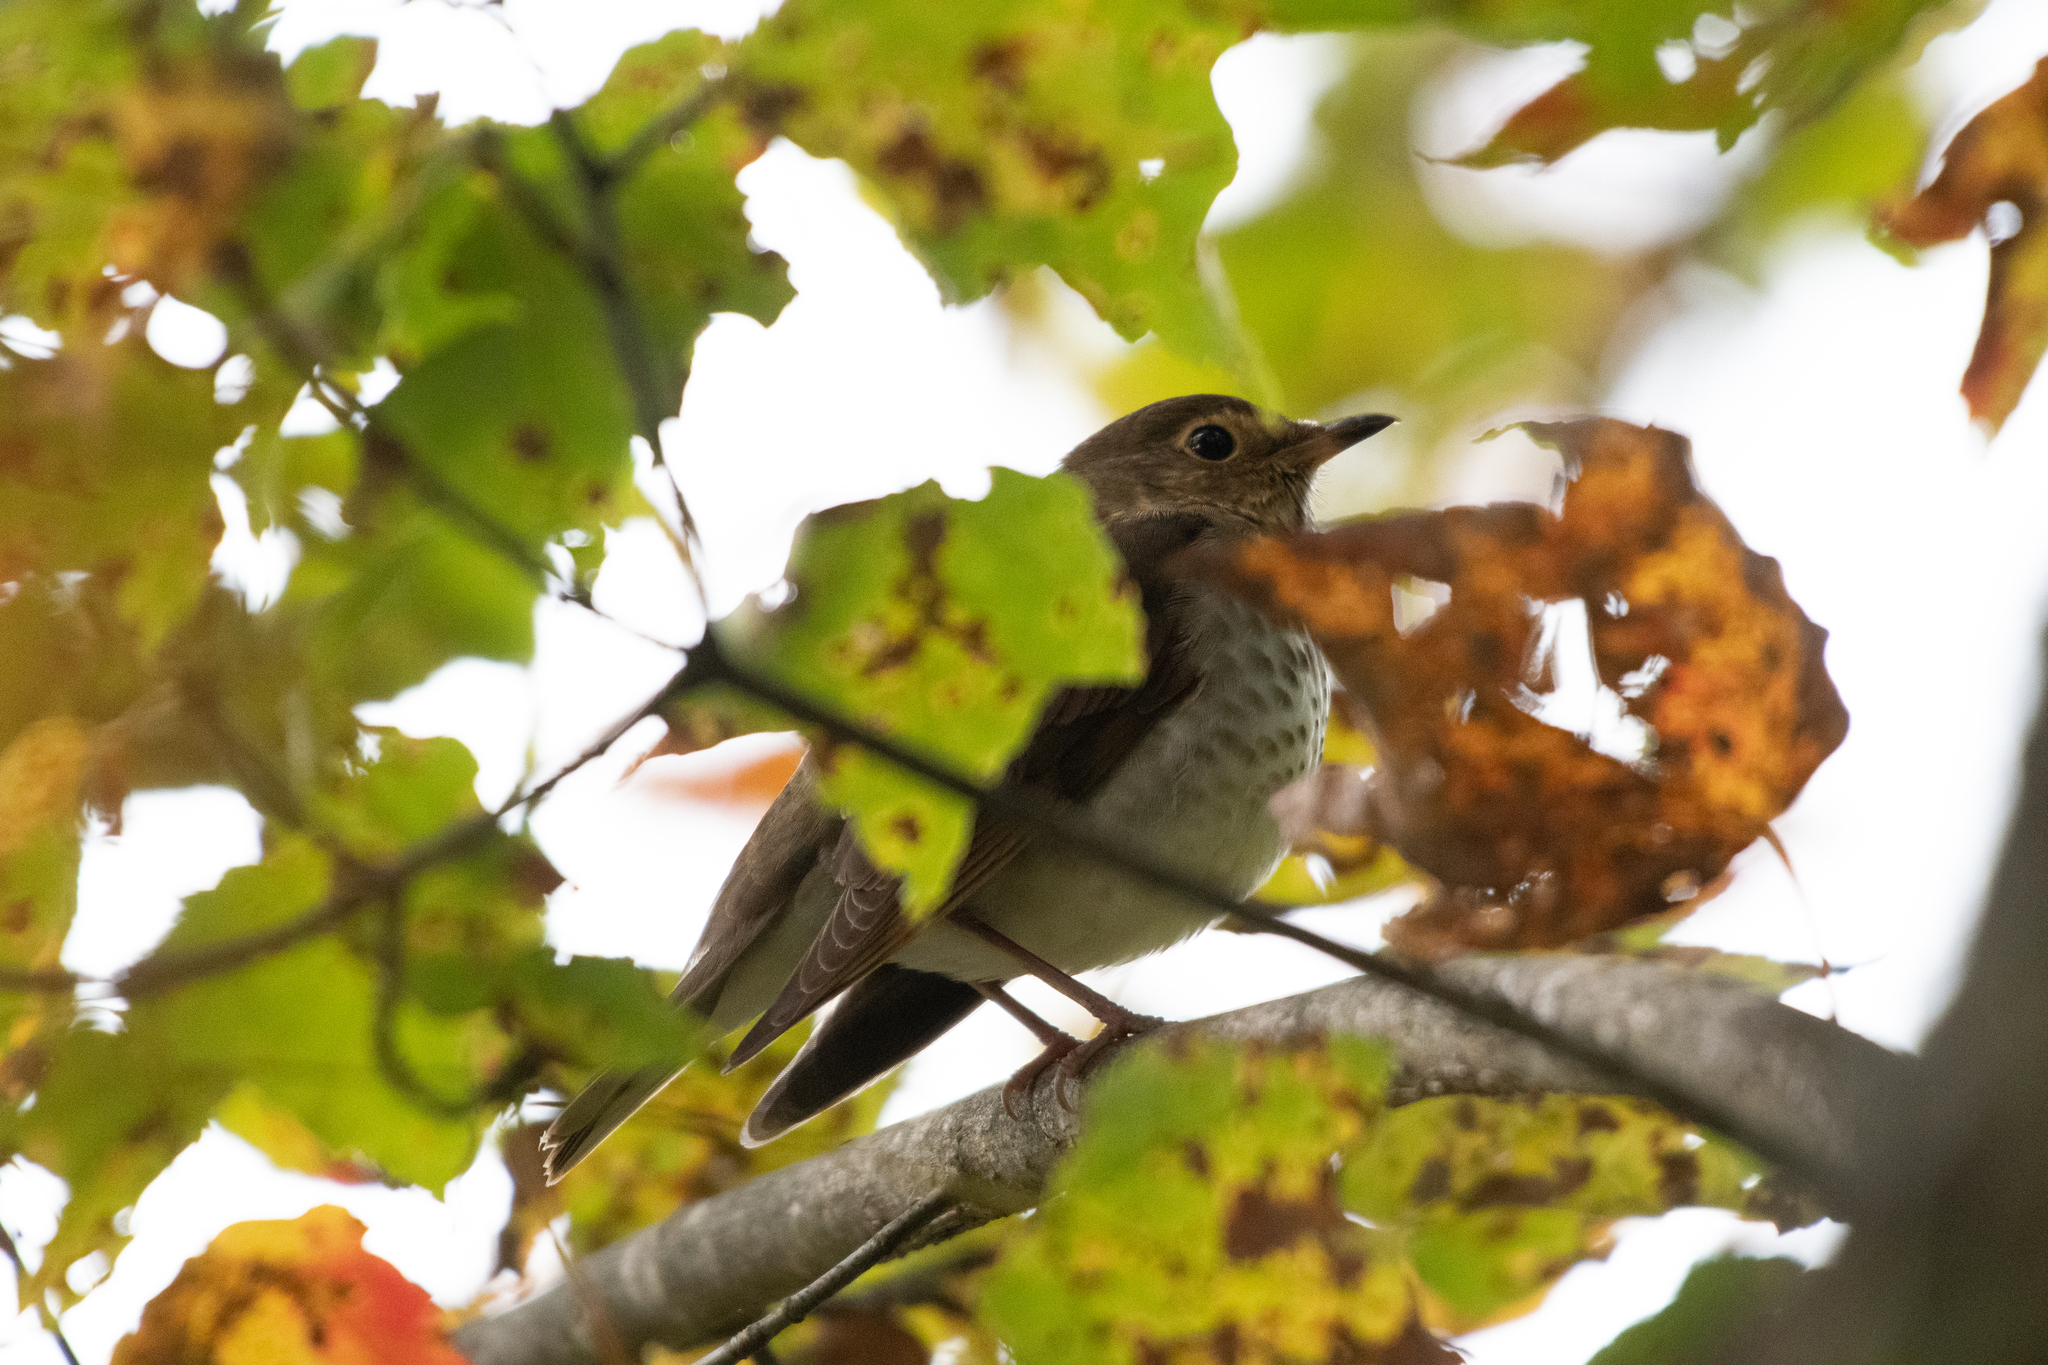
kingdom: Animalia
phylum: Chordata
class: Aves
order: Passeriformes
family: Turdidae
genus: Catharus
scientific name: Catharus ustulatus
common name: Swainson's thrush
